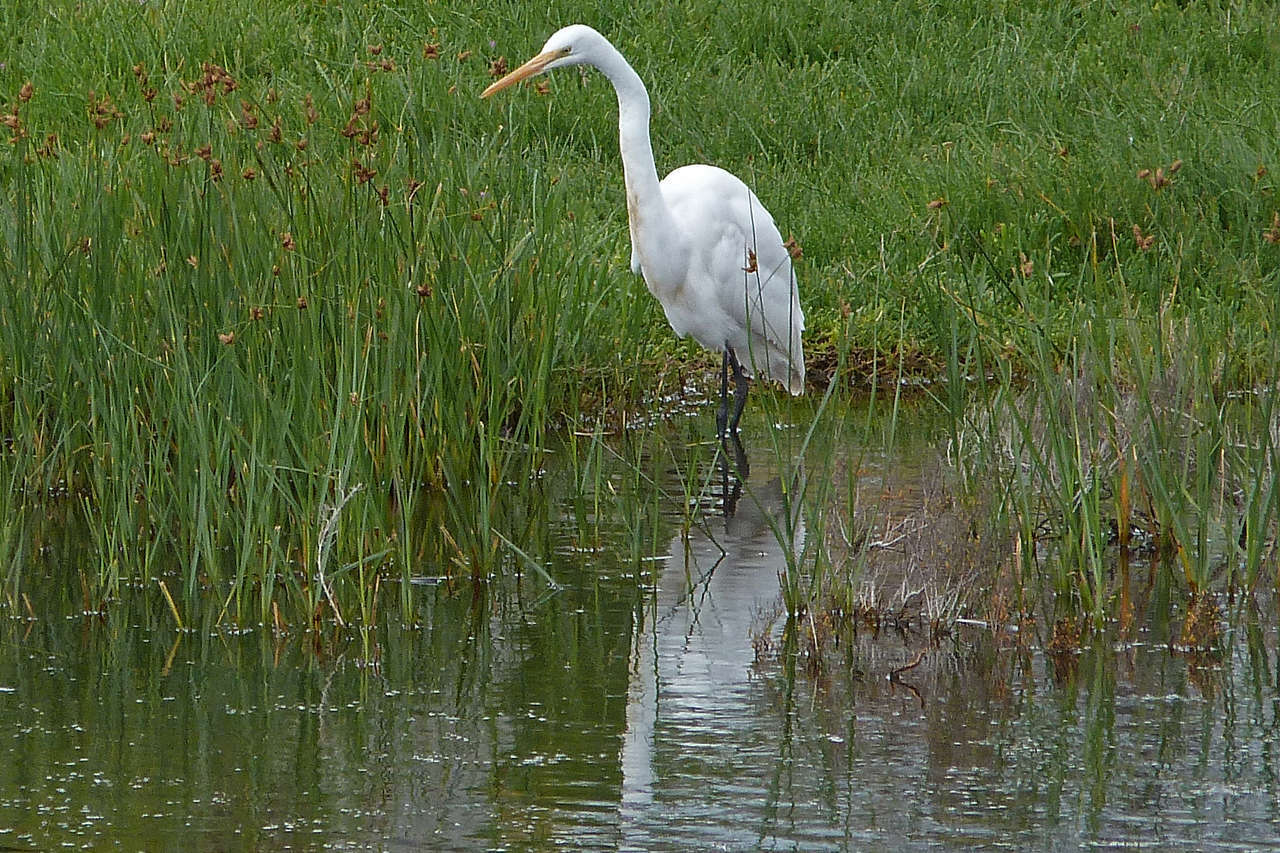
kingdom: Animalia
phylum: Chordata
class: Aves
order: Pelecaniformes
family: Ardeidae
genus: Ardea
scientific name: Ardea modesta
